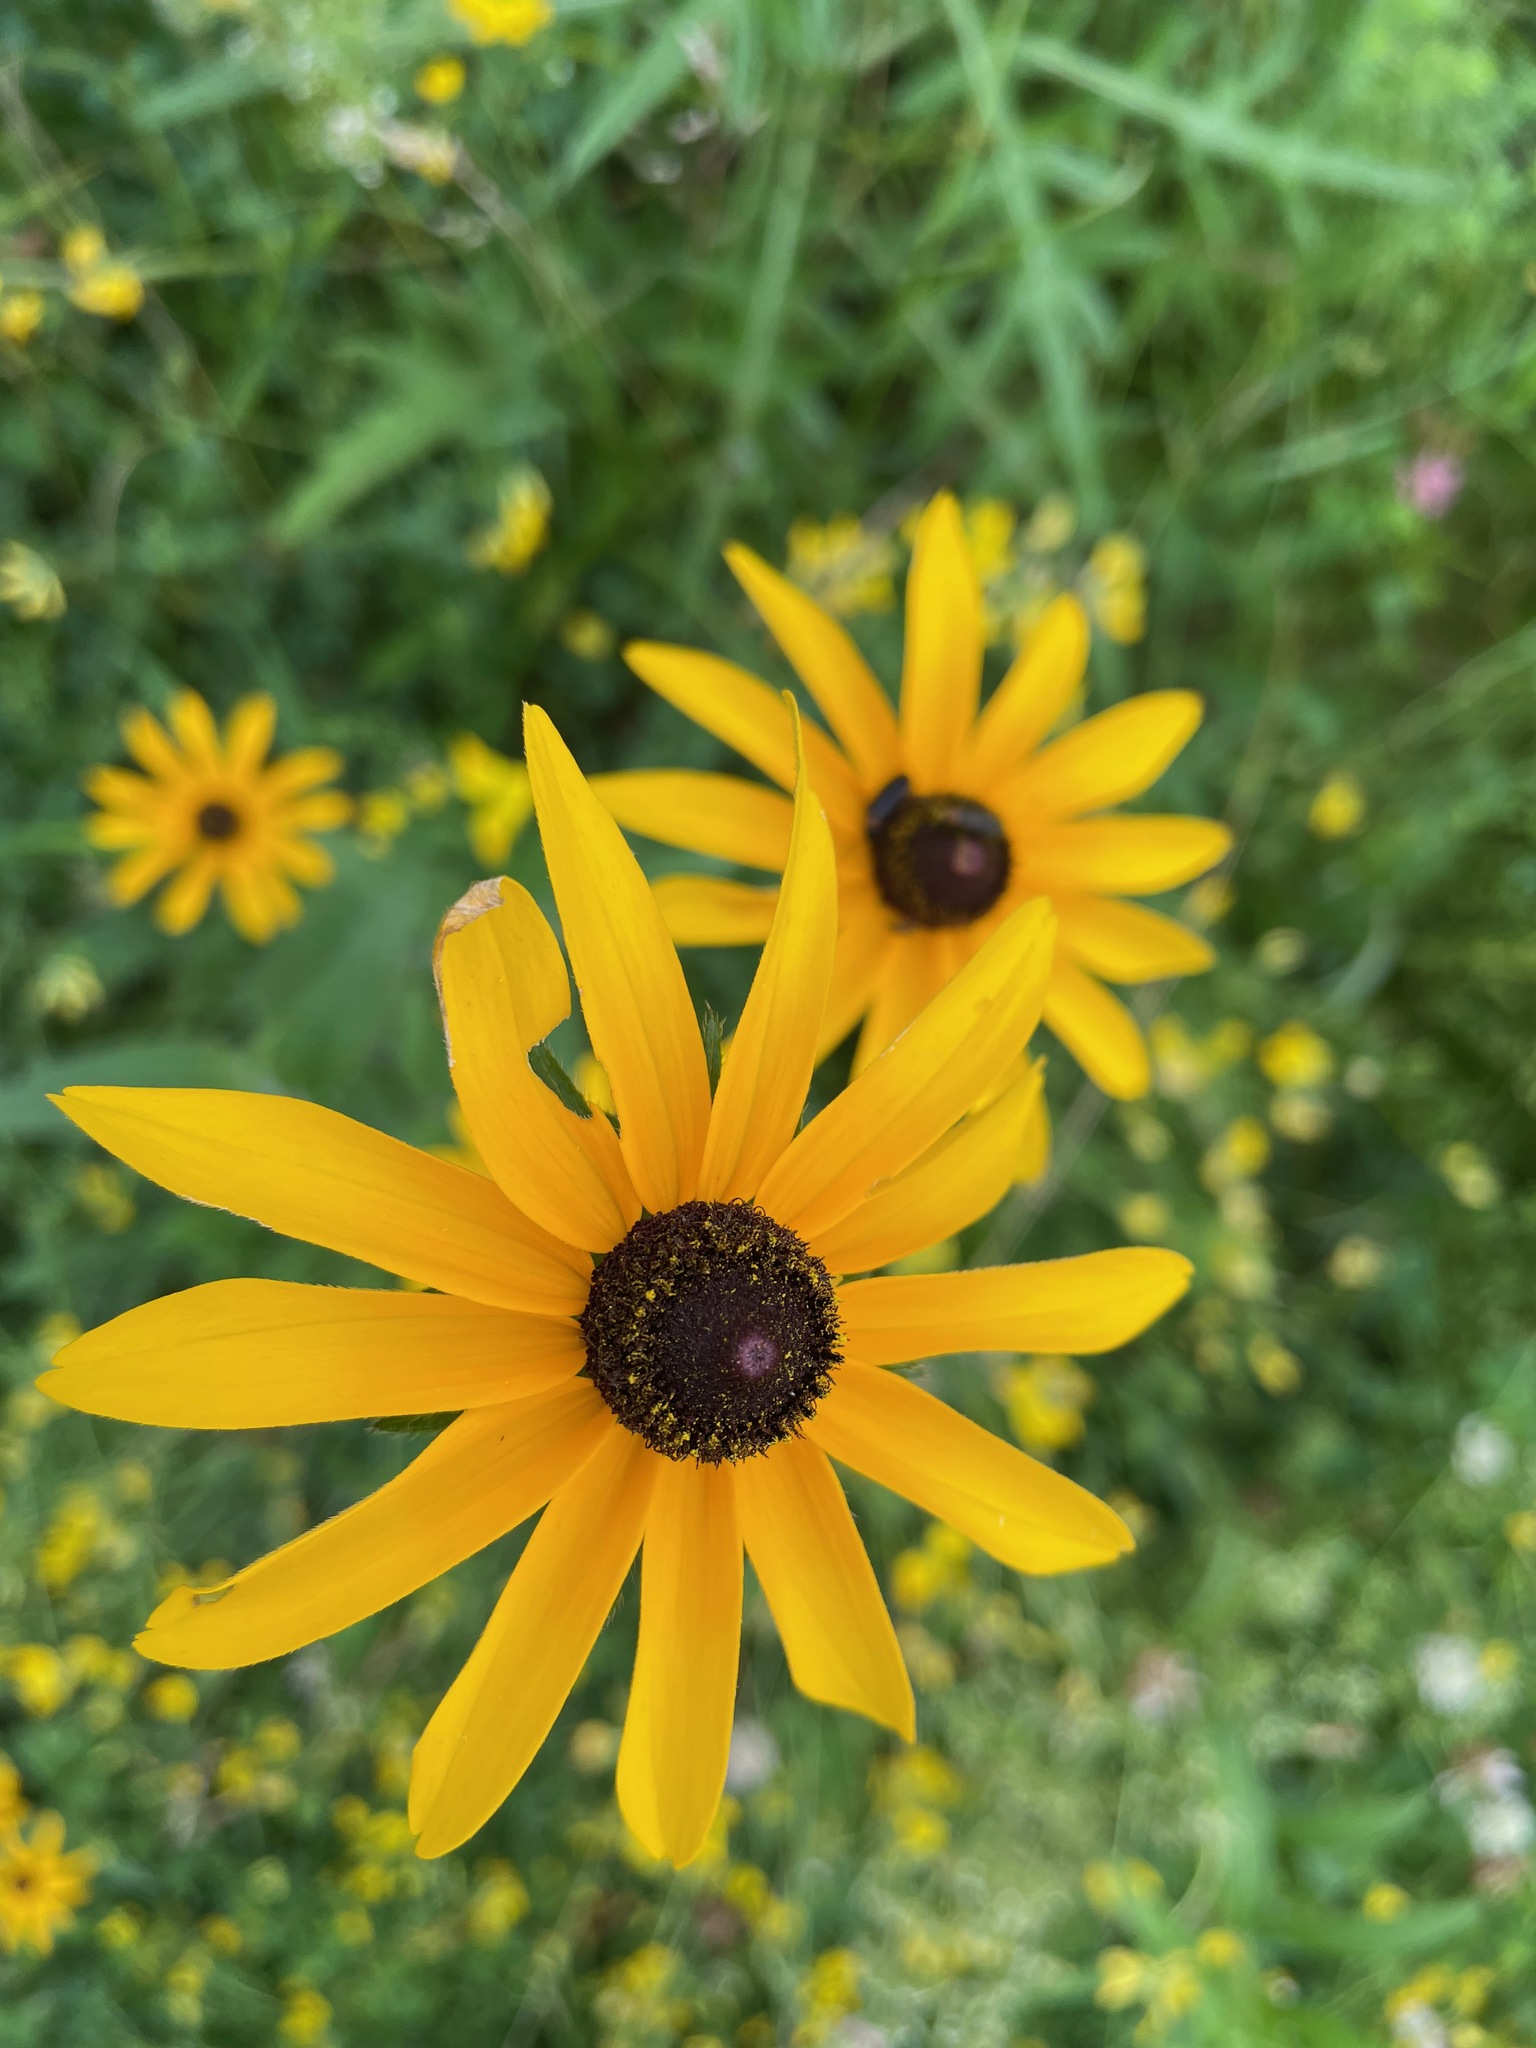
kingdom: Plantae
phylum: Tracheophyta
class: Magnoliopsida
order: Asterales
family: Asteraceae
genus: Rudbeckia
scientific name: Rudbeckia hirta
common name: Black-eyed-susan
